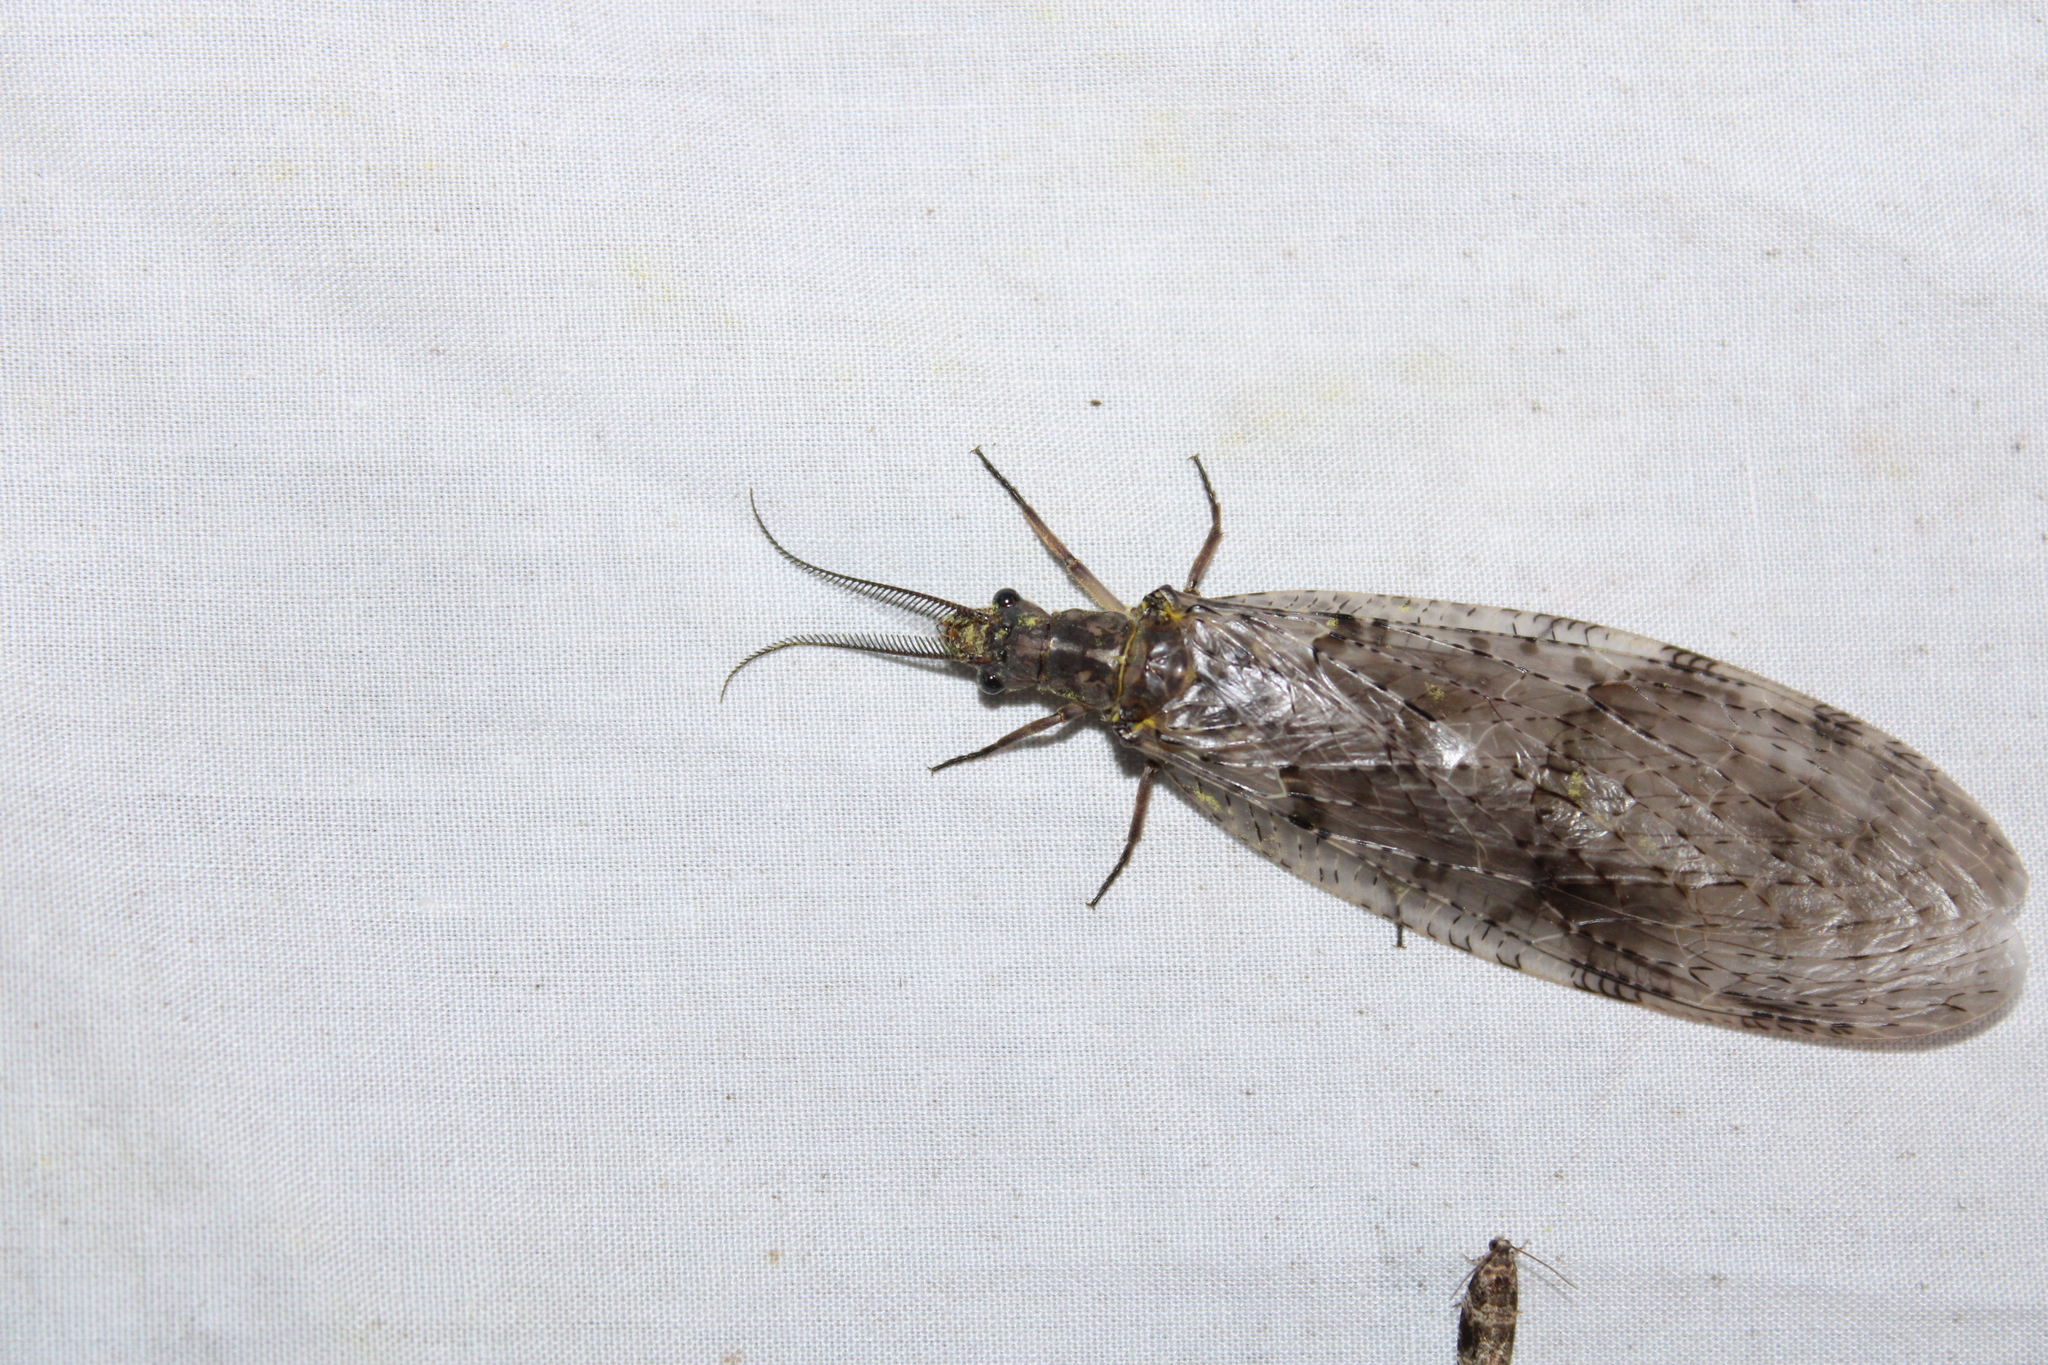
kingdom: Animalia
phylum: Arthropoda
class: Insecta
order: Megaloptera
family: Corydalidae
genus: Chauliodes
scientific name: Chauliodes pectinicornis
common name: Summer fishfly
